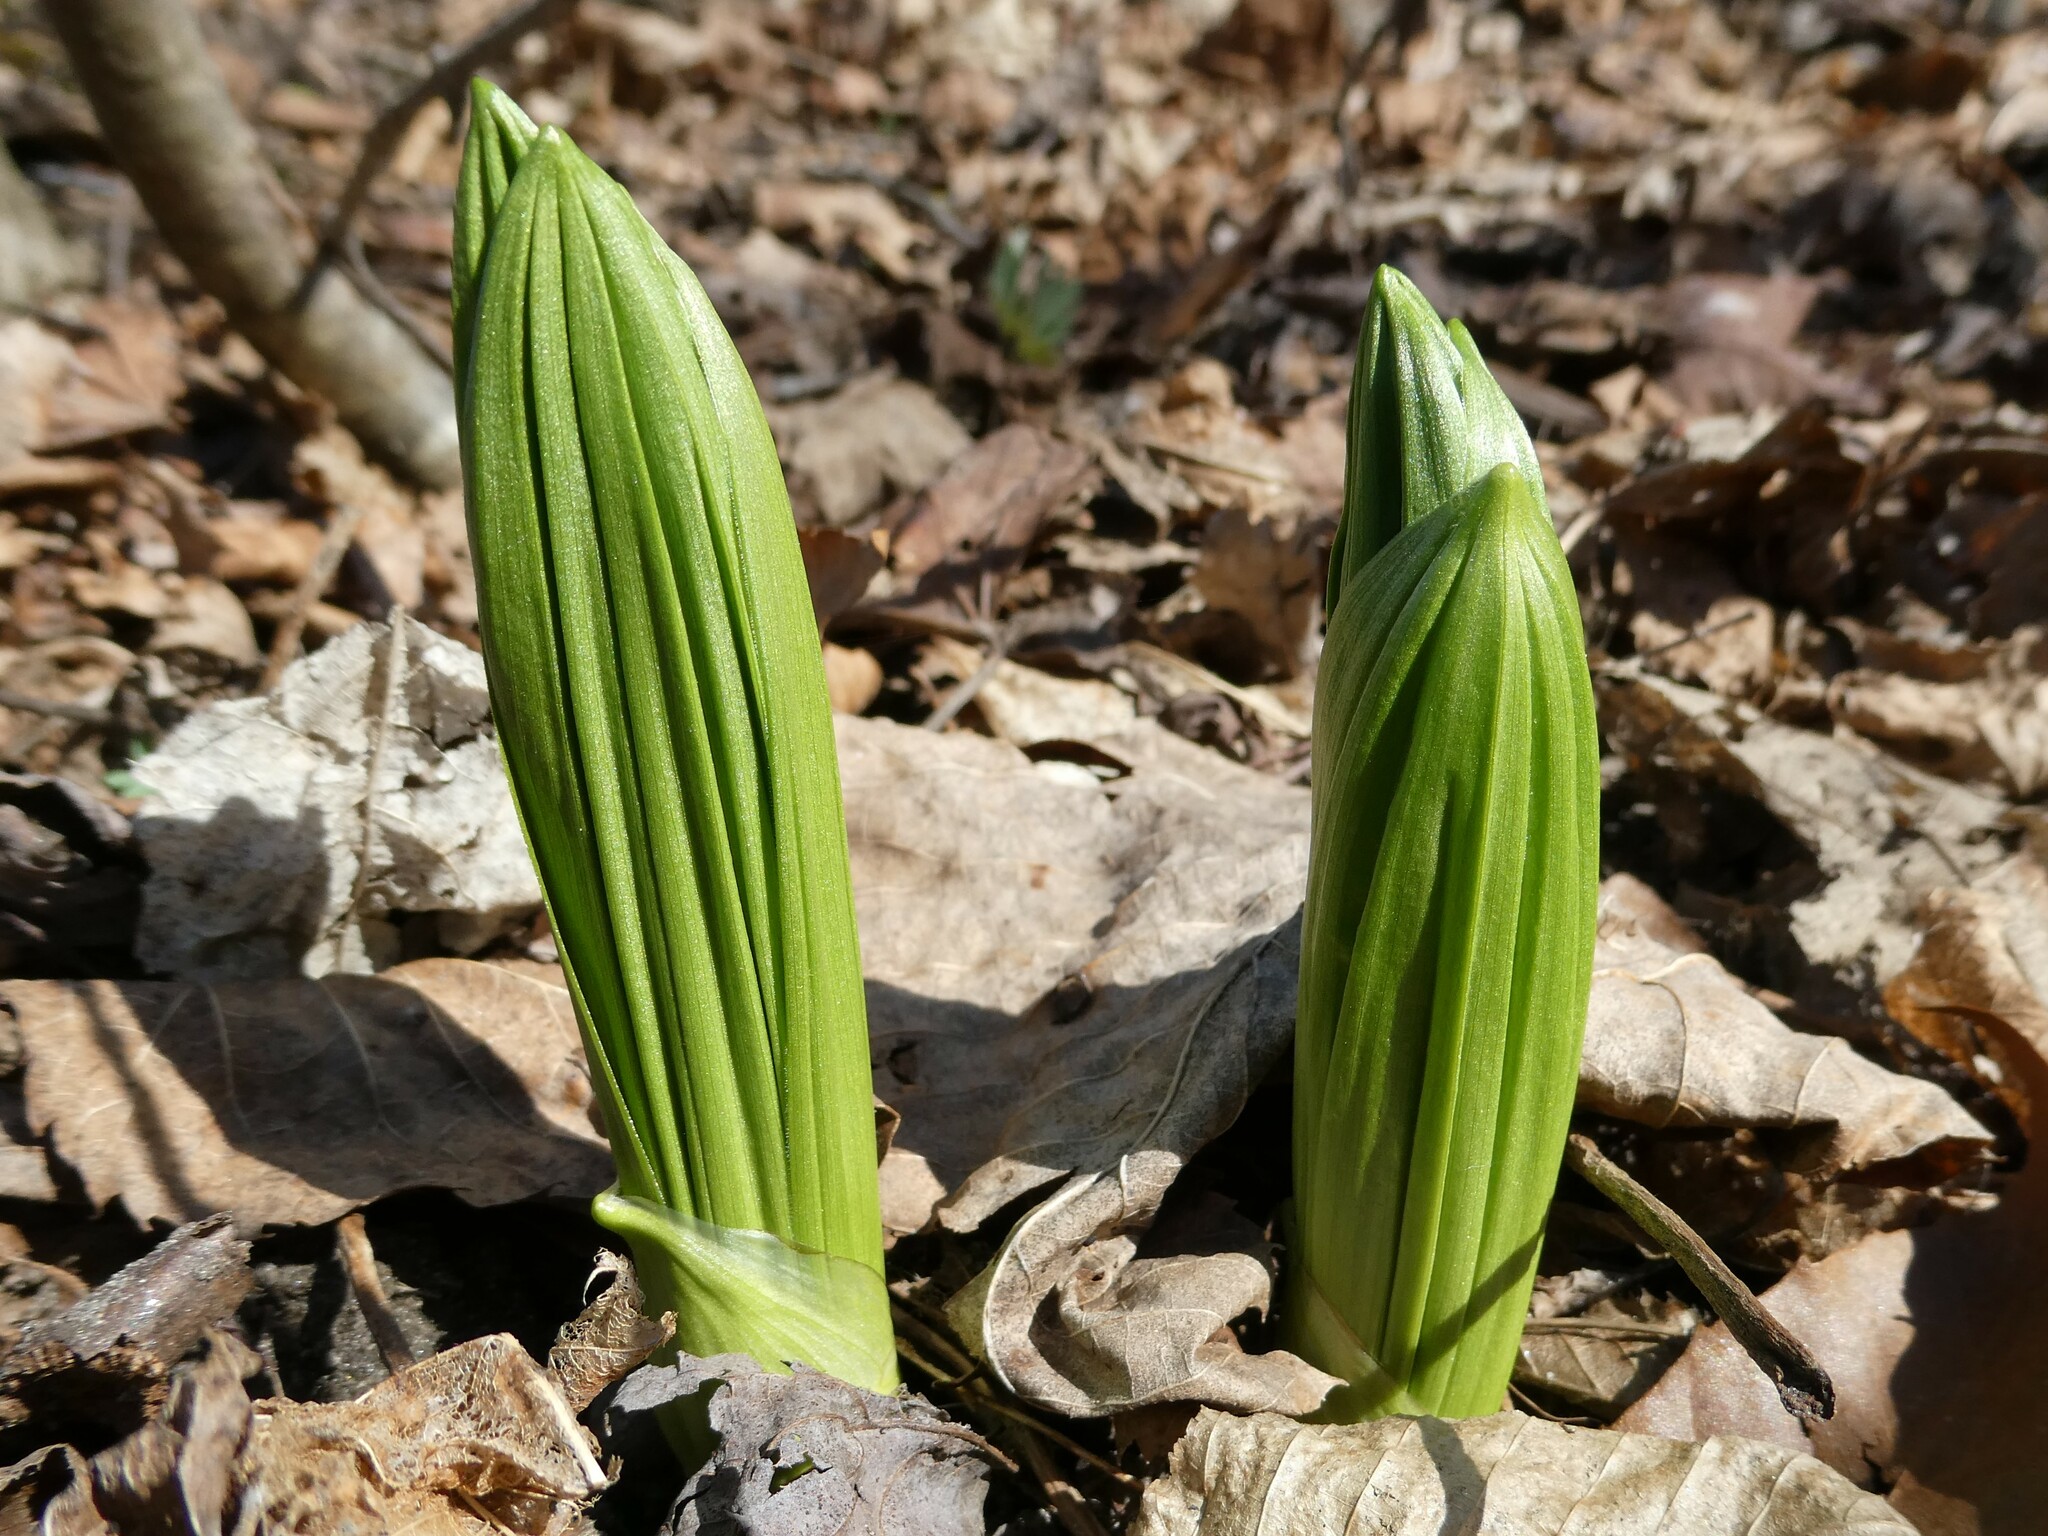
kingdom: Plantae
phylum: Tracheophyta
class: Liliopsida
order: Liliales
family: Melanthiaceae
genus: Veratrum
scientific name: Veratrum viride
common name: American false hellebore
